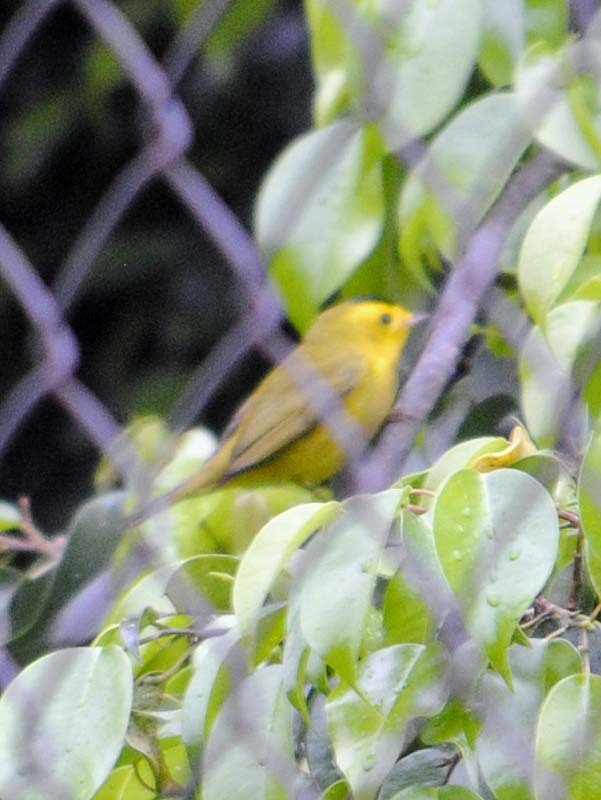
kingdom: Animalia
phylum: Chordata
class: Aves
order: Passeriformes
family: Parulidae
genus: Cardellina
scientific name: Cardellina pusilla
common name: Wilson's warbler
